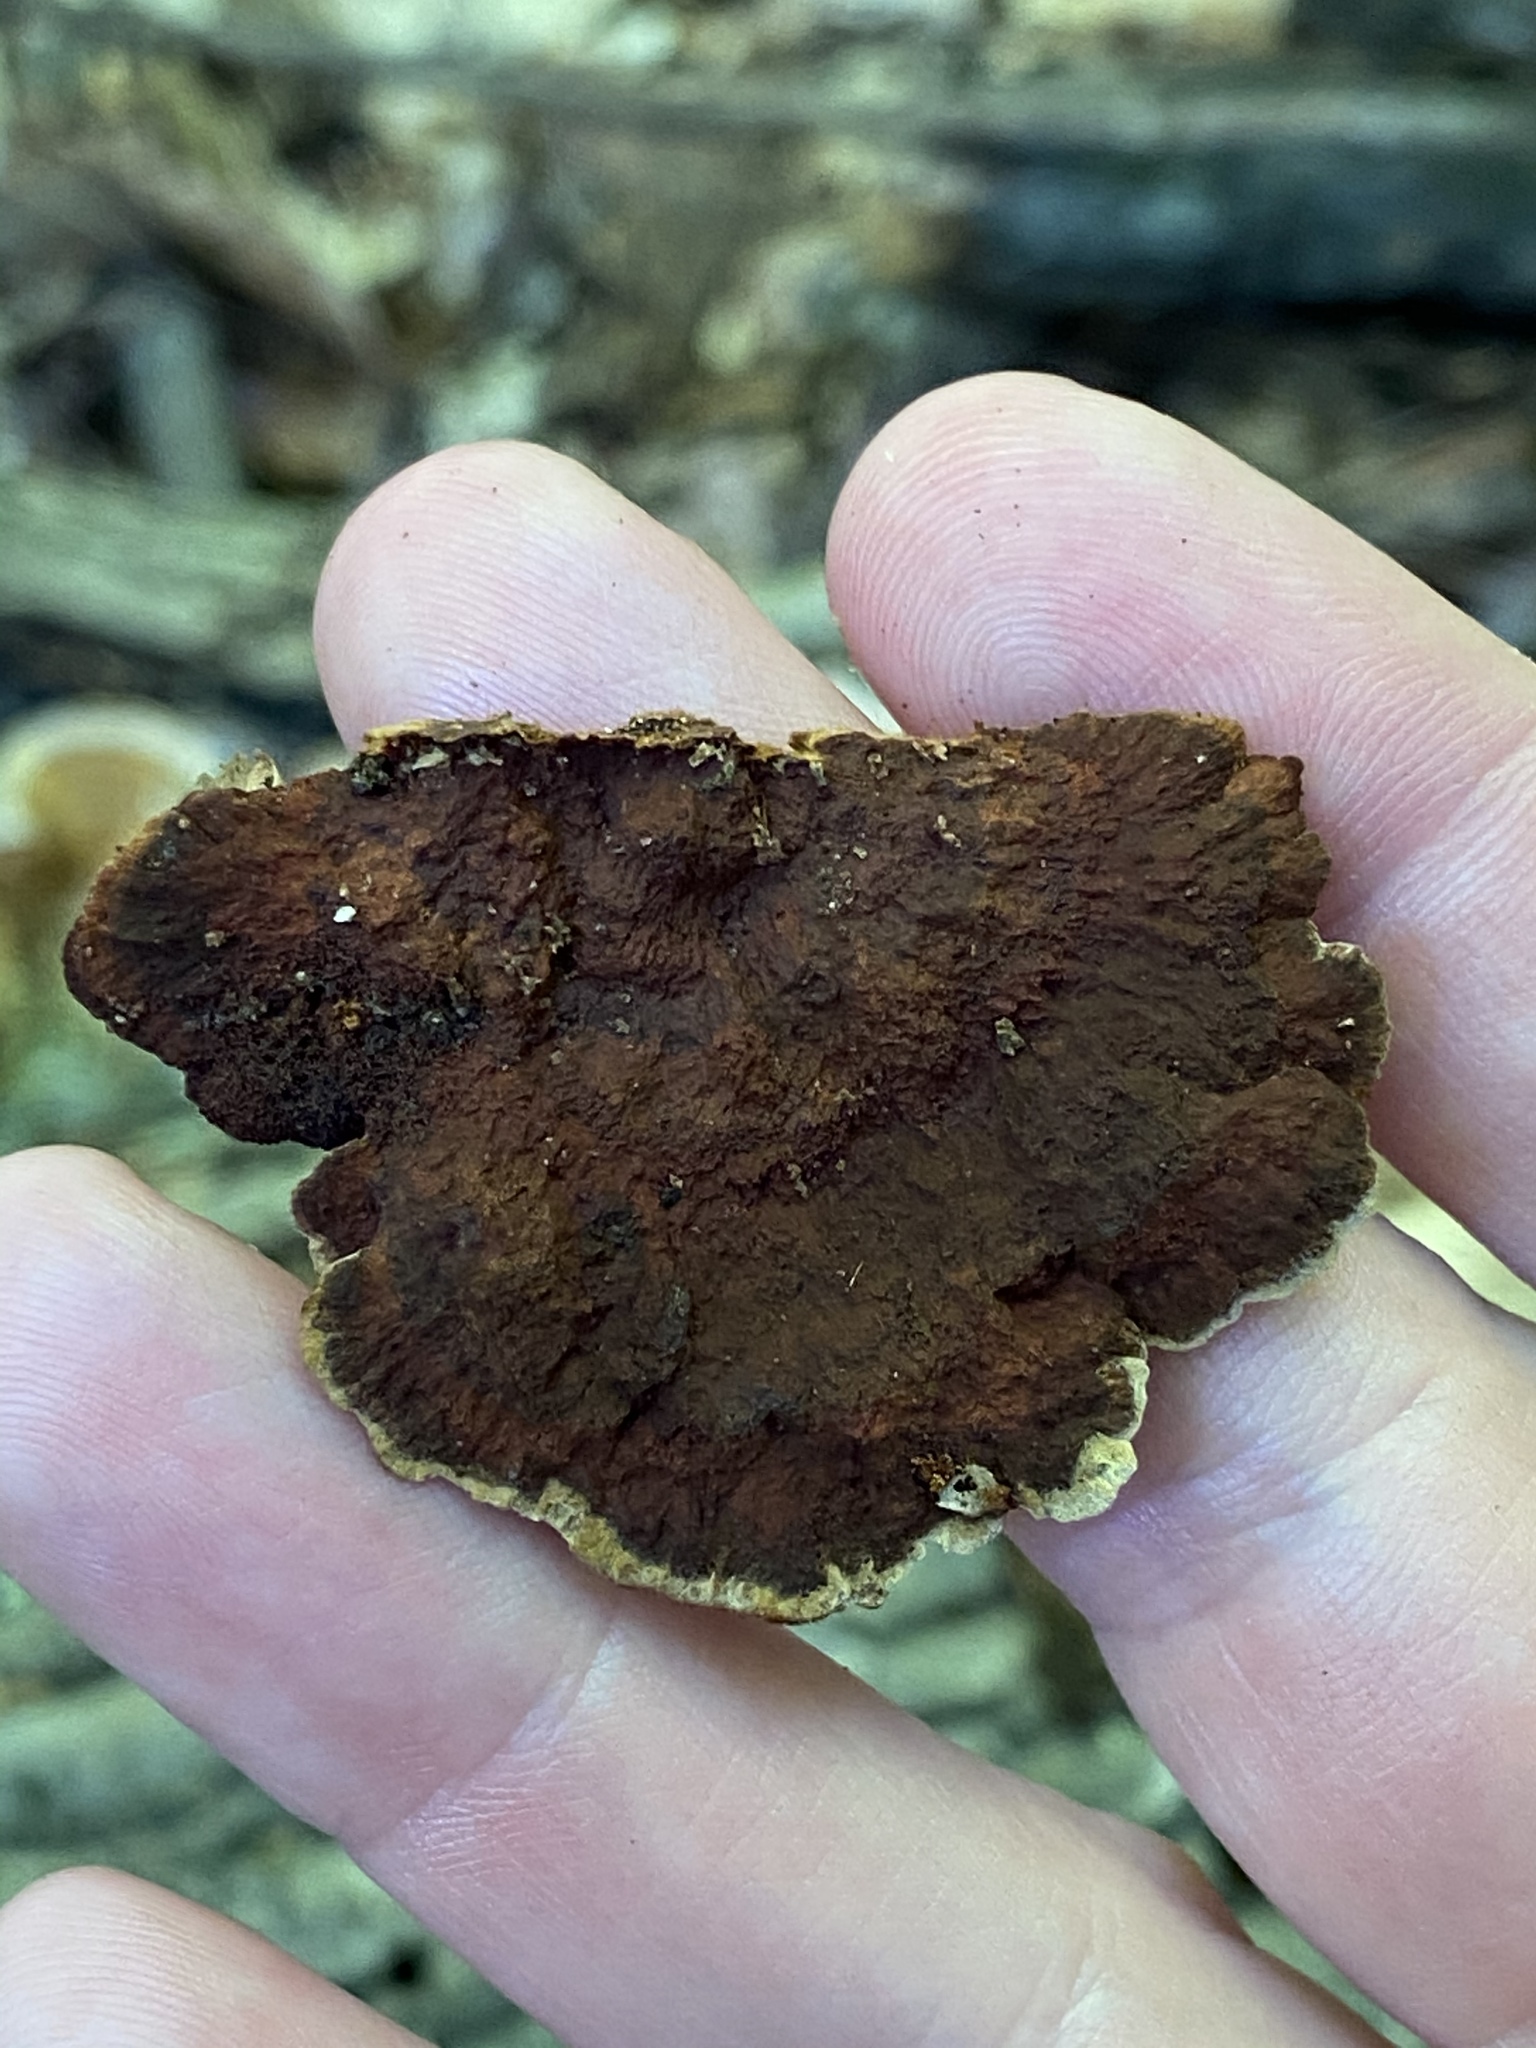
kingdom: Fungi
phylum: Basidiomycota
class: Agaricomycetes
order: Hymenochaetales
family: Hymenochaetaceae
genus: Phellinus
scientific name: Phellinus gilvus
